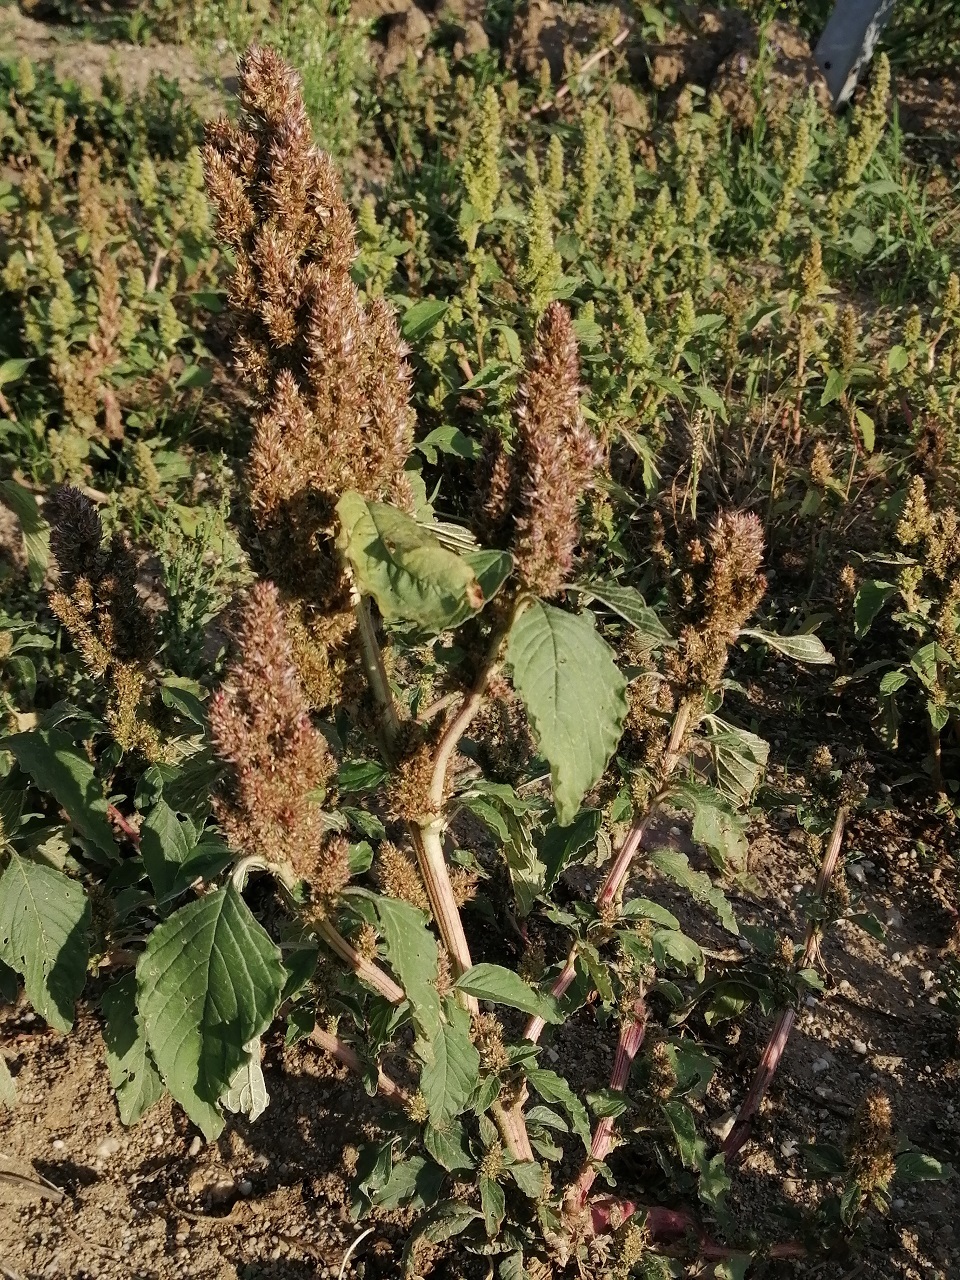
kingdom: Plantae
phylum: Tracheophyta
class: Magnoliopsida
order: Caryophyllales
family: Amaranthaceae
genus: Amaranthus
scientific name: Amaranthus retroflexus
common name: Redroot amaranth
